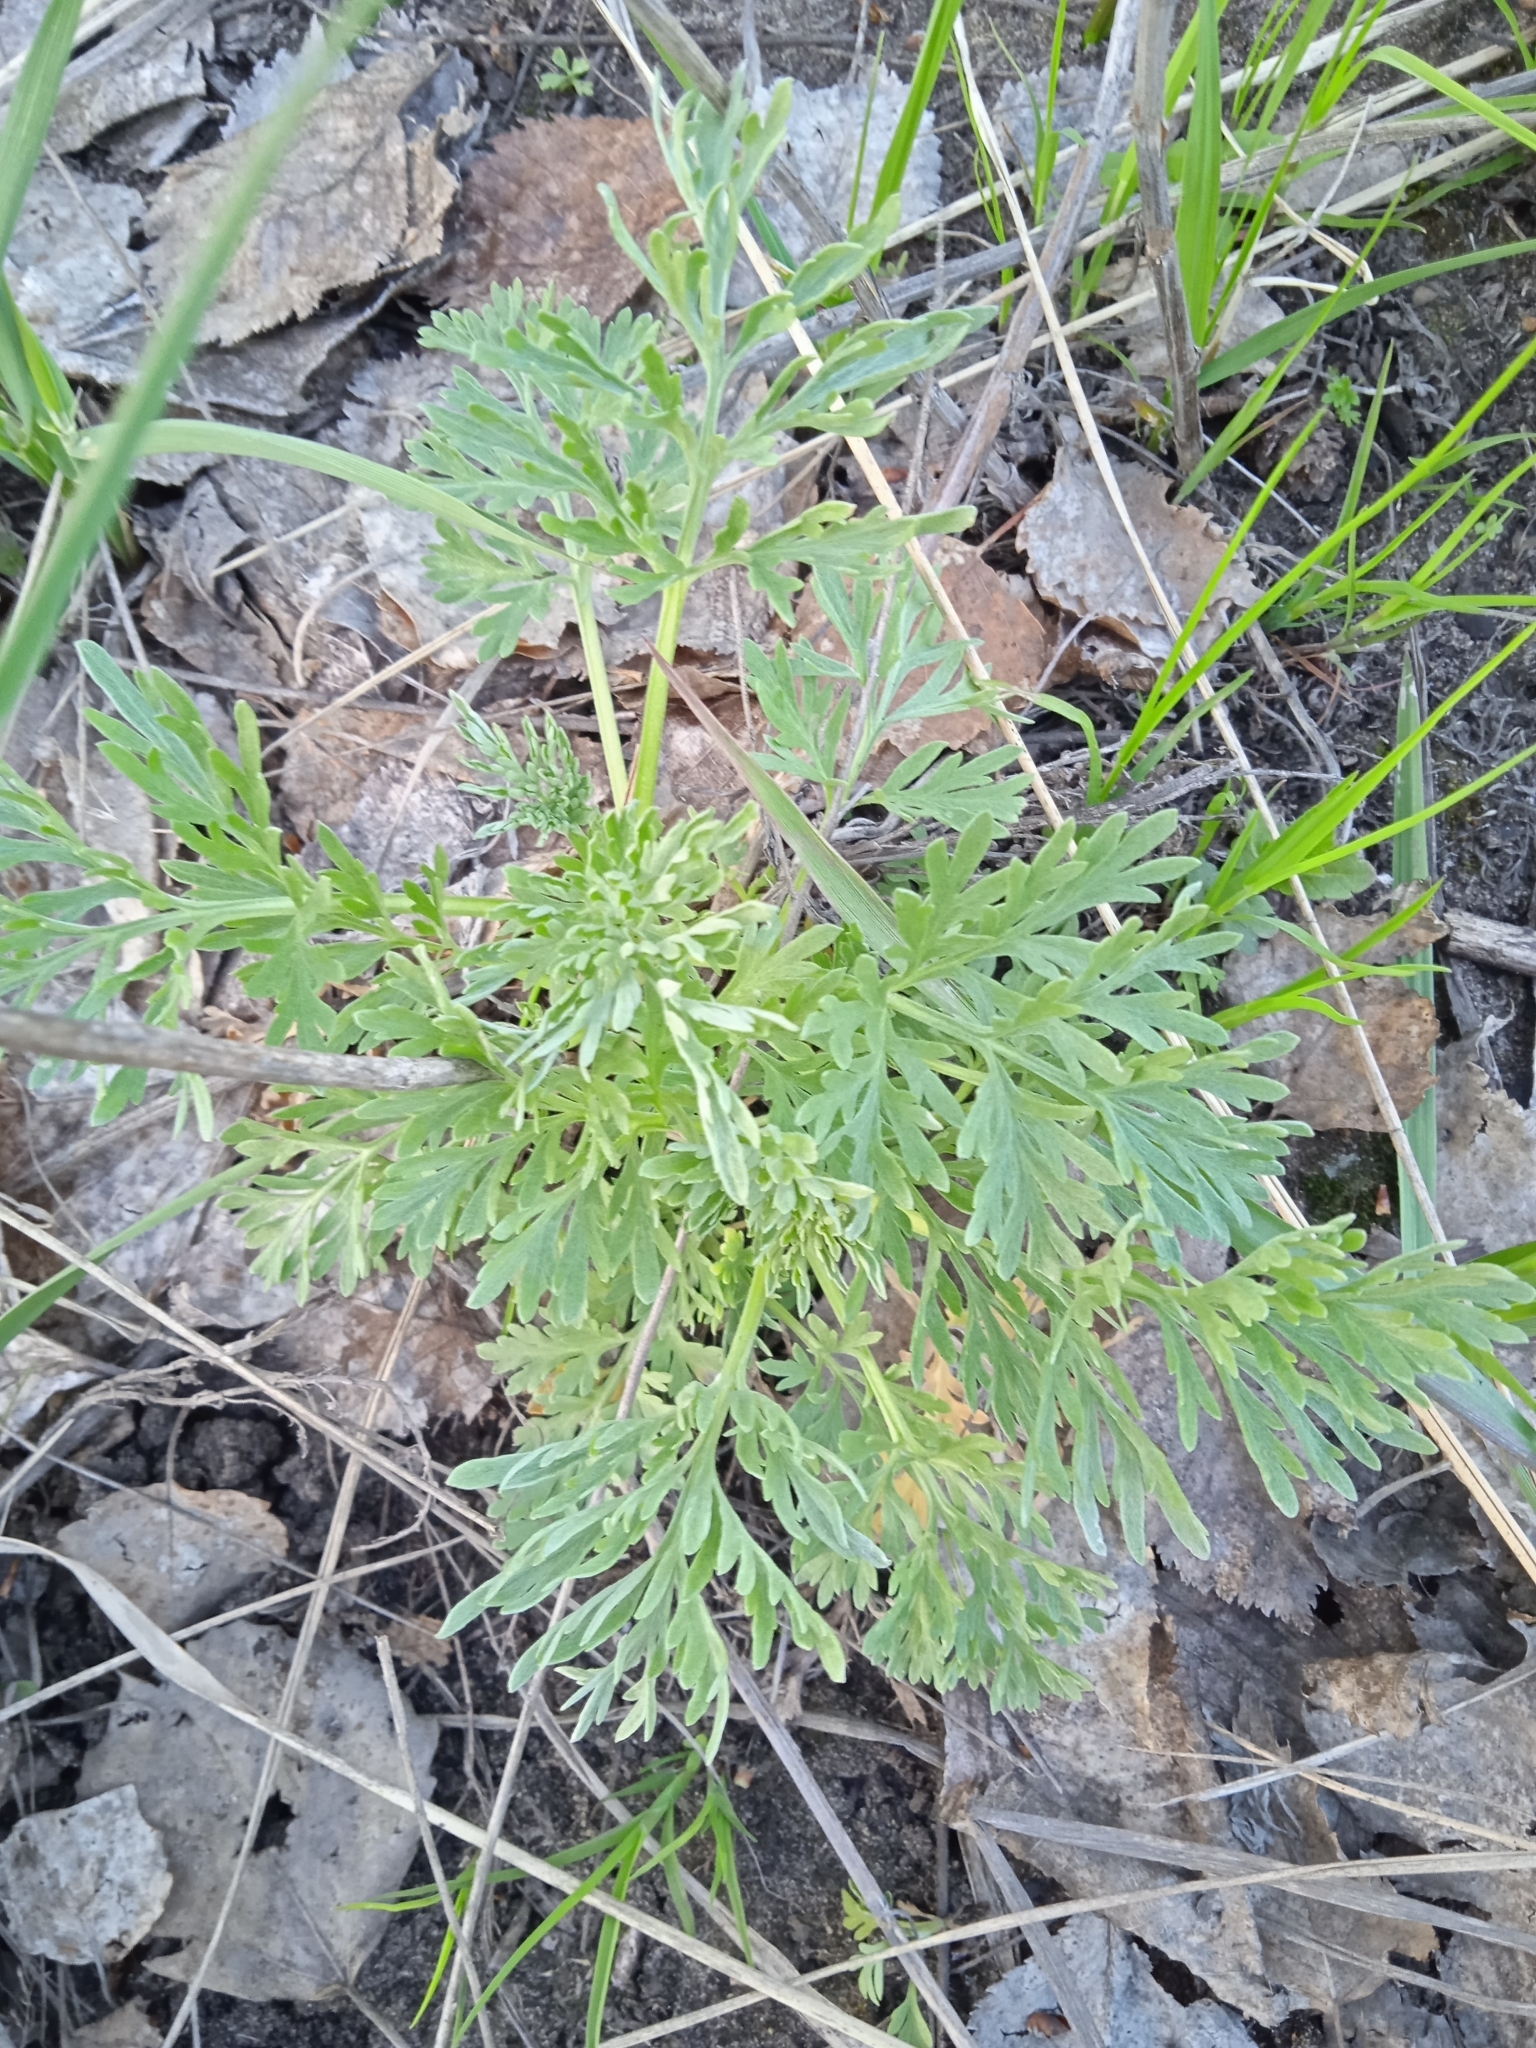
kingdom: Plantae
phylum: Tracheophyta
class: Magnoliopsida
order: Asterales
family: Asteraceae
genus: Artemisia
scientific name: Artemisia absinthium
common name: Wormwood
